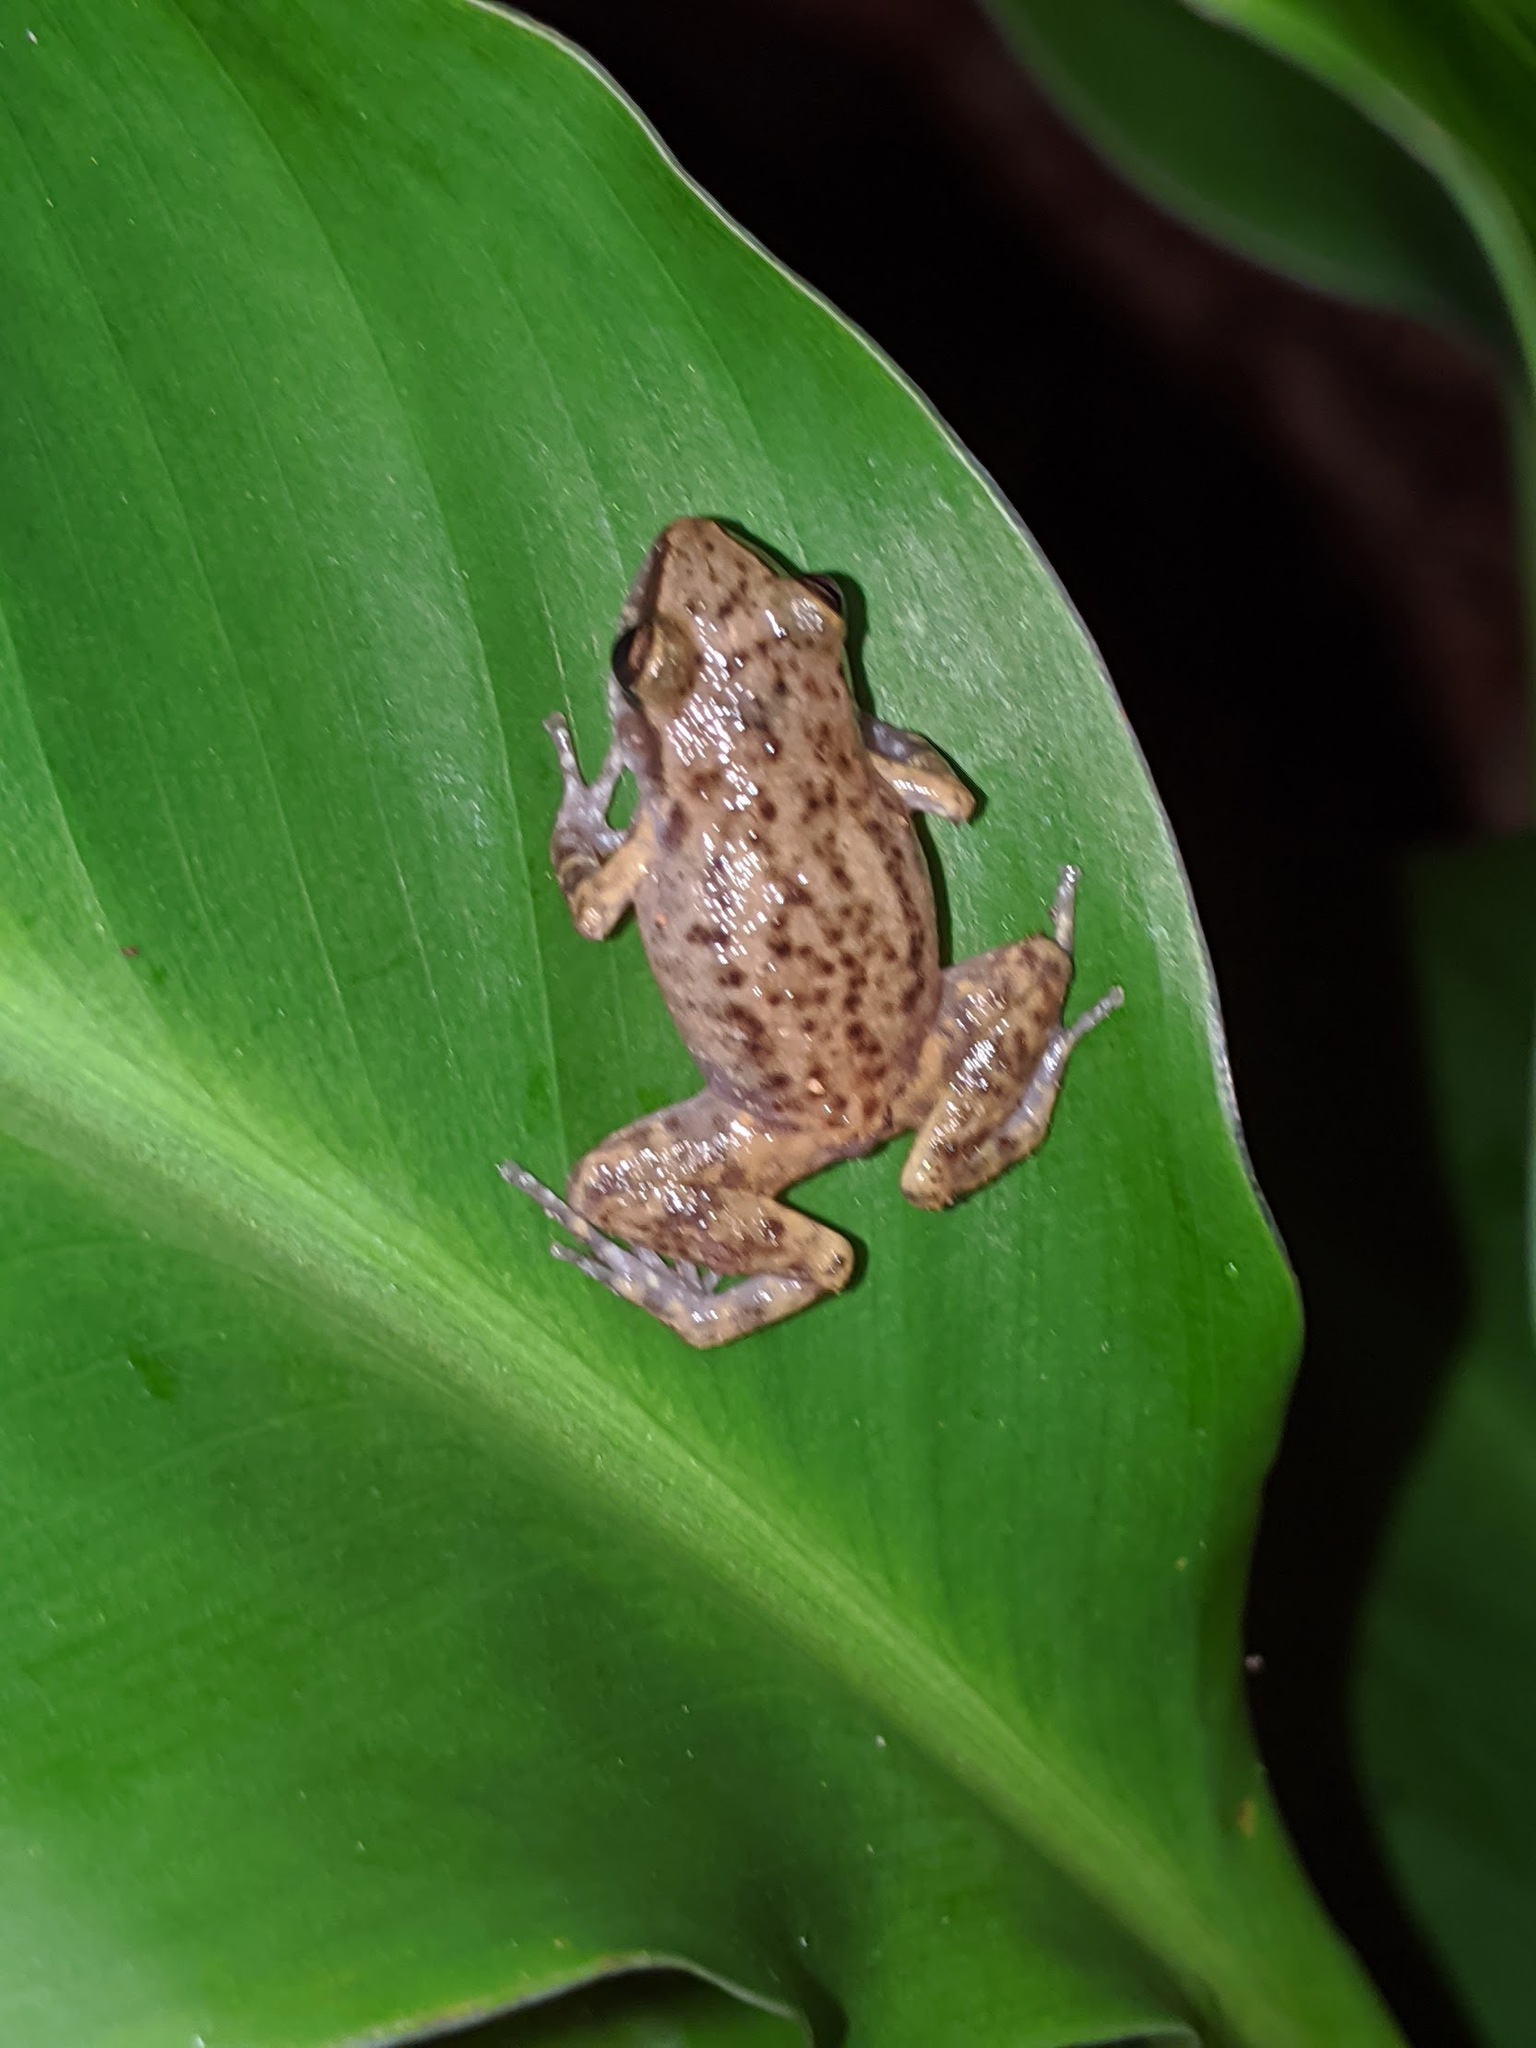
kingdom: Animalia
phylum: Chordata
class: Amphibia
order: Anura
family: Eleutherodactylidae
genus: Eleutherodactylus
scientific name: Eleutherodactylus campi
